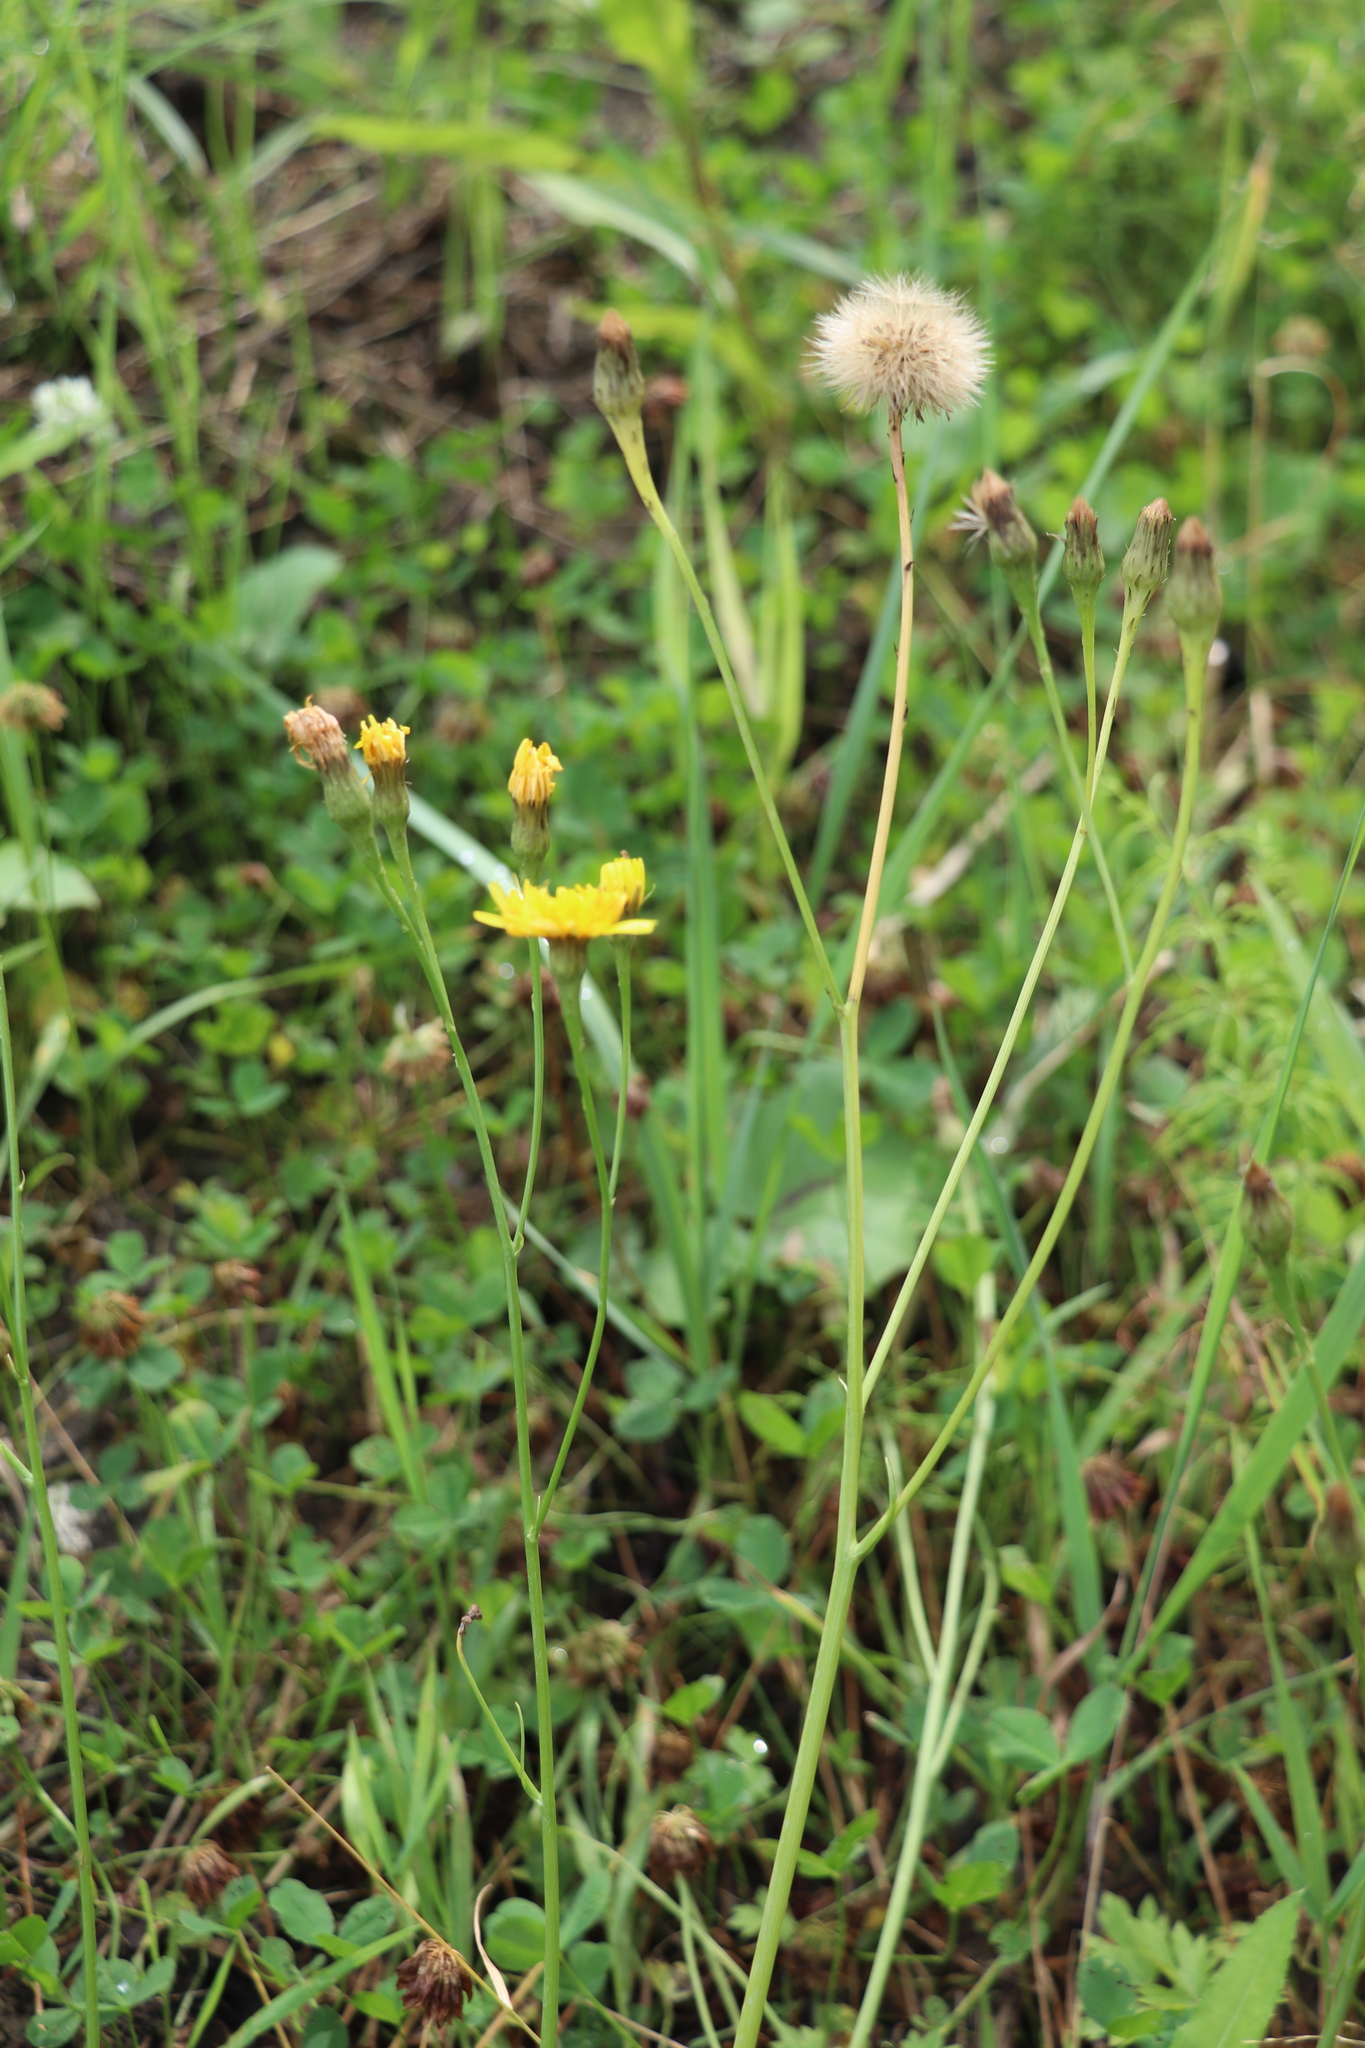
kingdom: Plantae
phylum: Tracheophyta
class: Magnoliopsida
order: Asterales
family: Asteraceae
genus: Scorzoneroides
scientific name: Scorzoneroides autumnalis
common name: Autumn hawkbit
